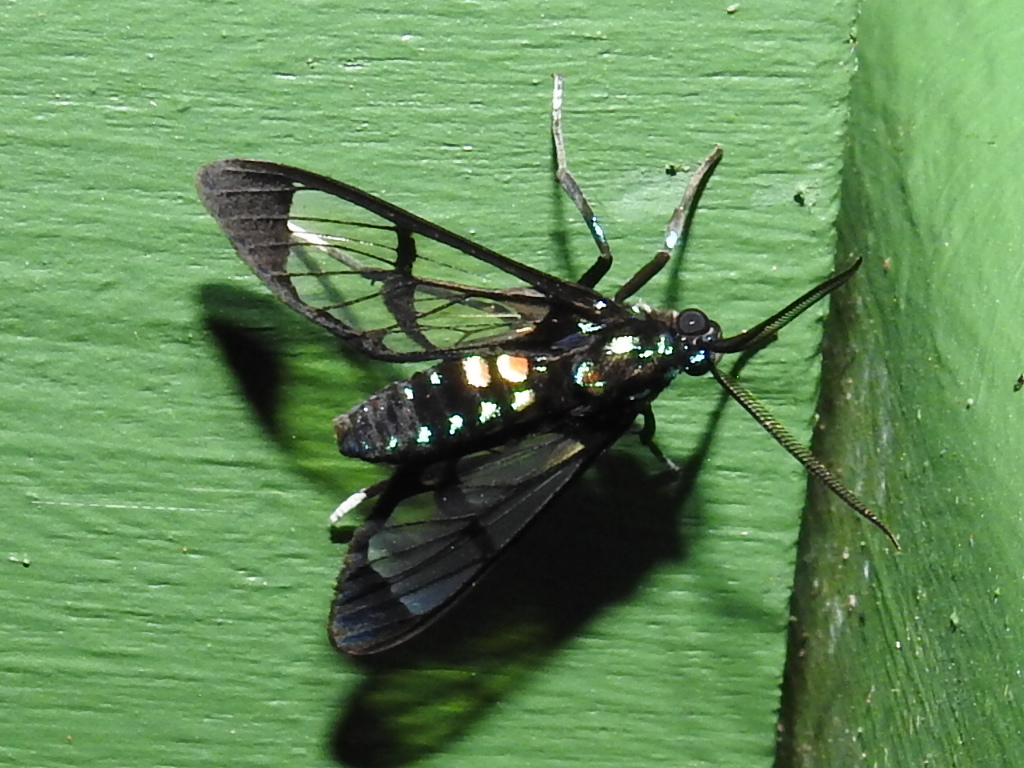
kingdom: Animalia
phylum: Arthropoda
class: Insecta
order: Lepidoptera
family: Erebidae
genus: Cosmosoma
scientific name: Cosmosoma xanthosticta
